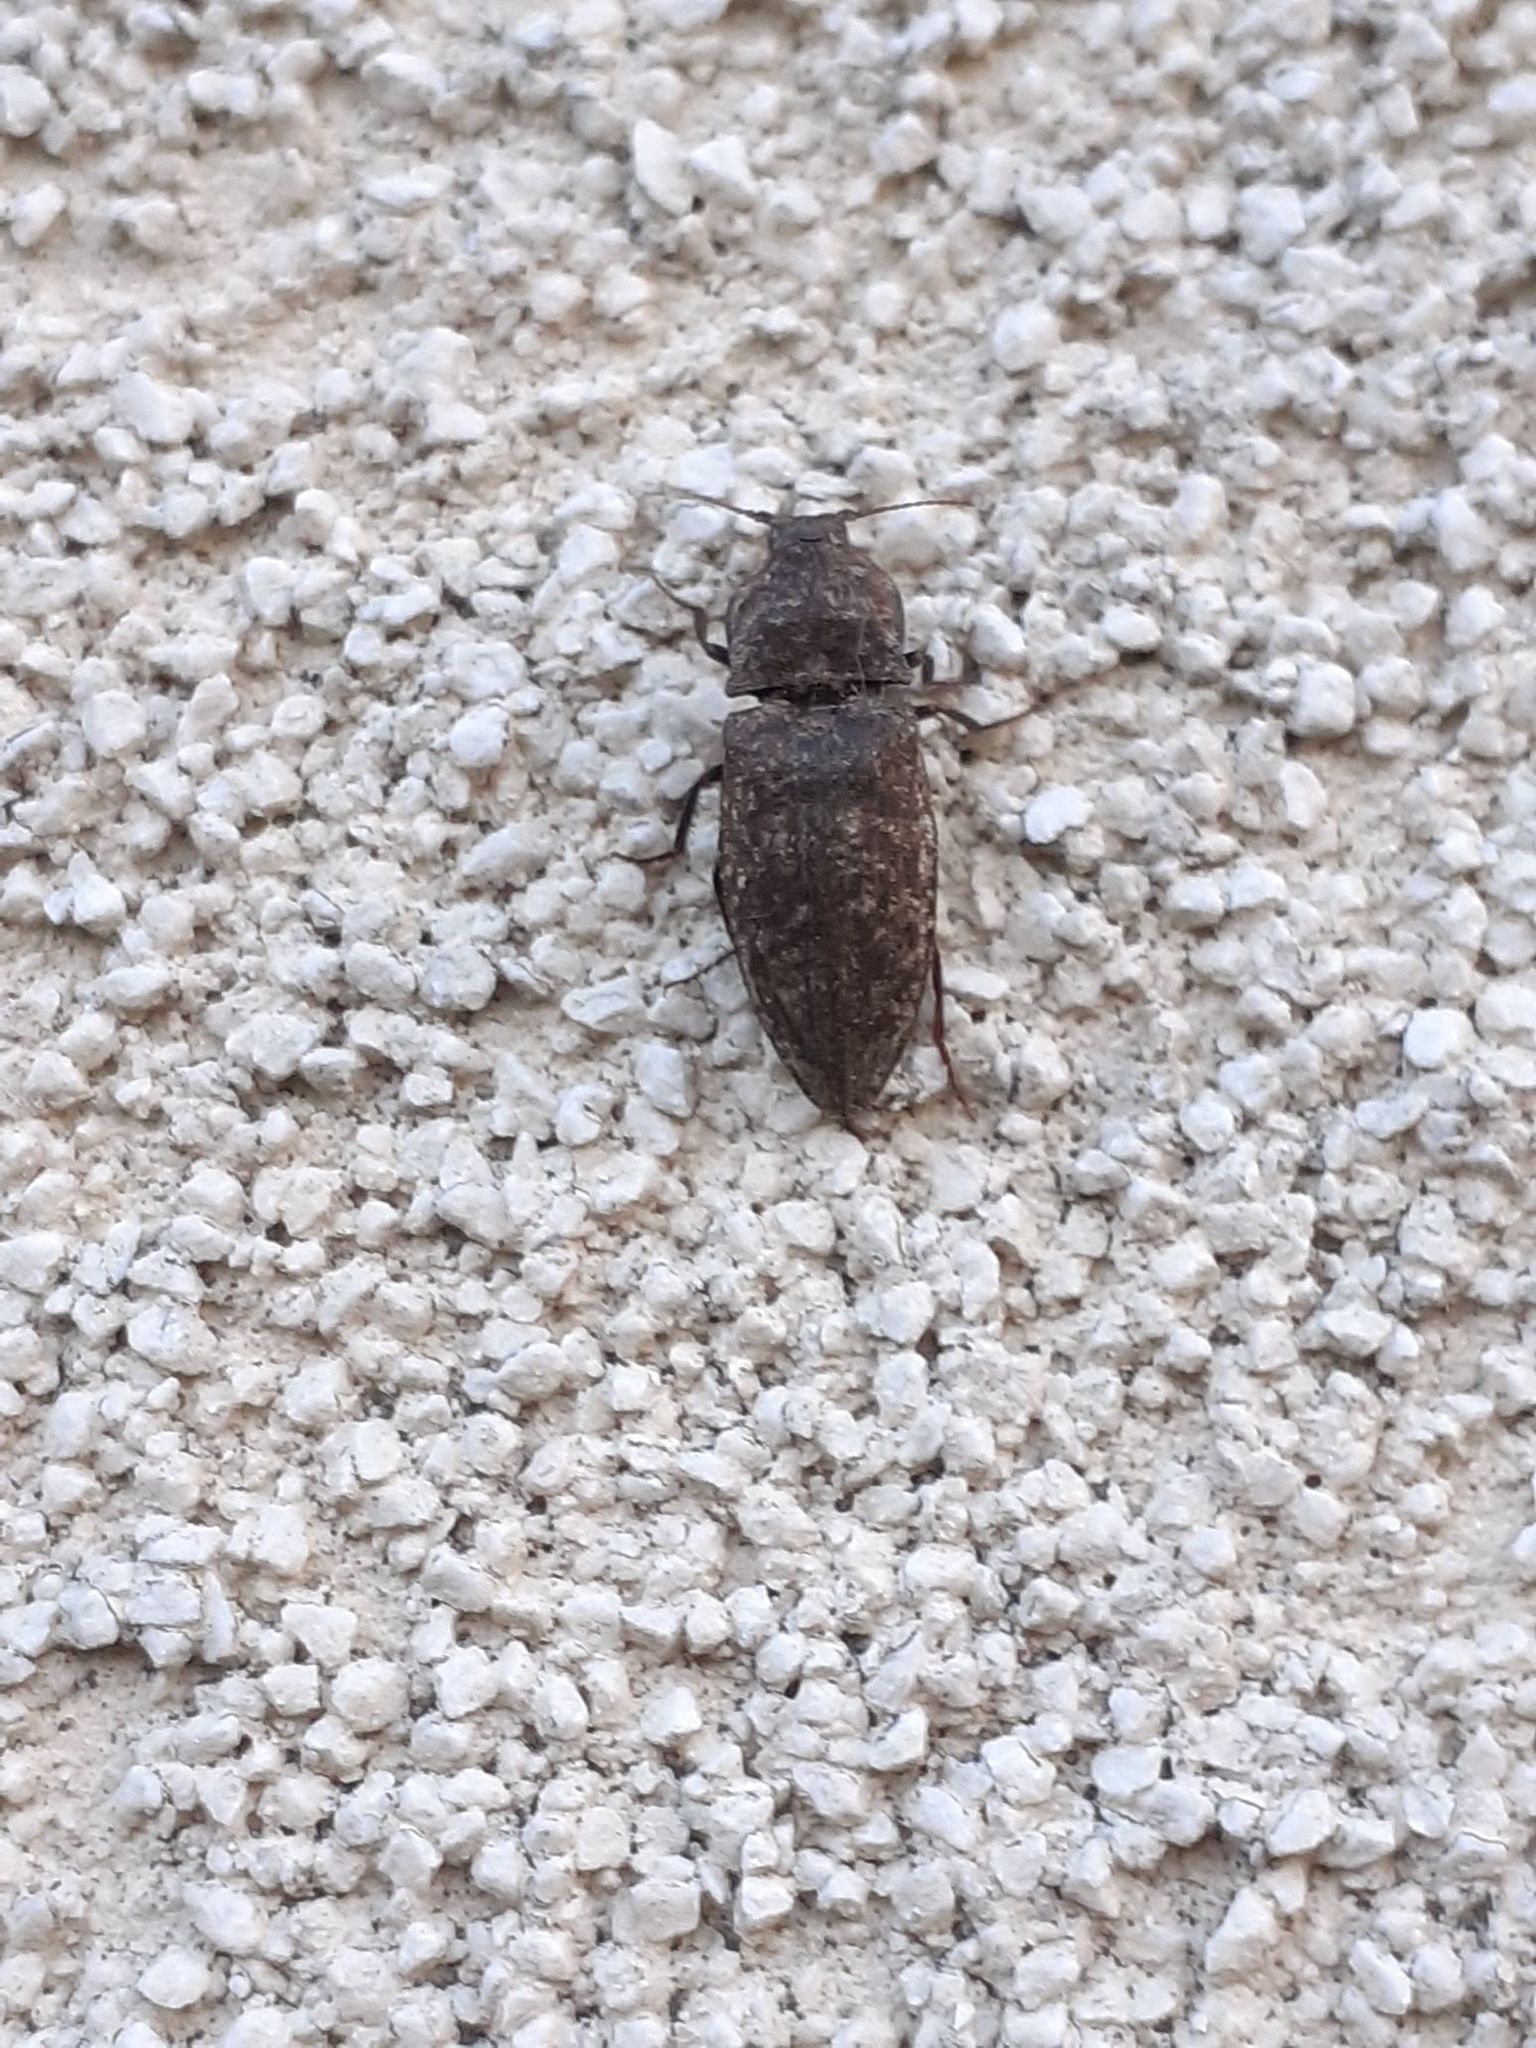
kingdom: Animalia
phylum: Arthropoda
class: Insecta
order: Coleoptera
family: Elateridae
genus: Agrypnus
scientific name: Agrypnus murinus
